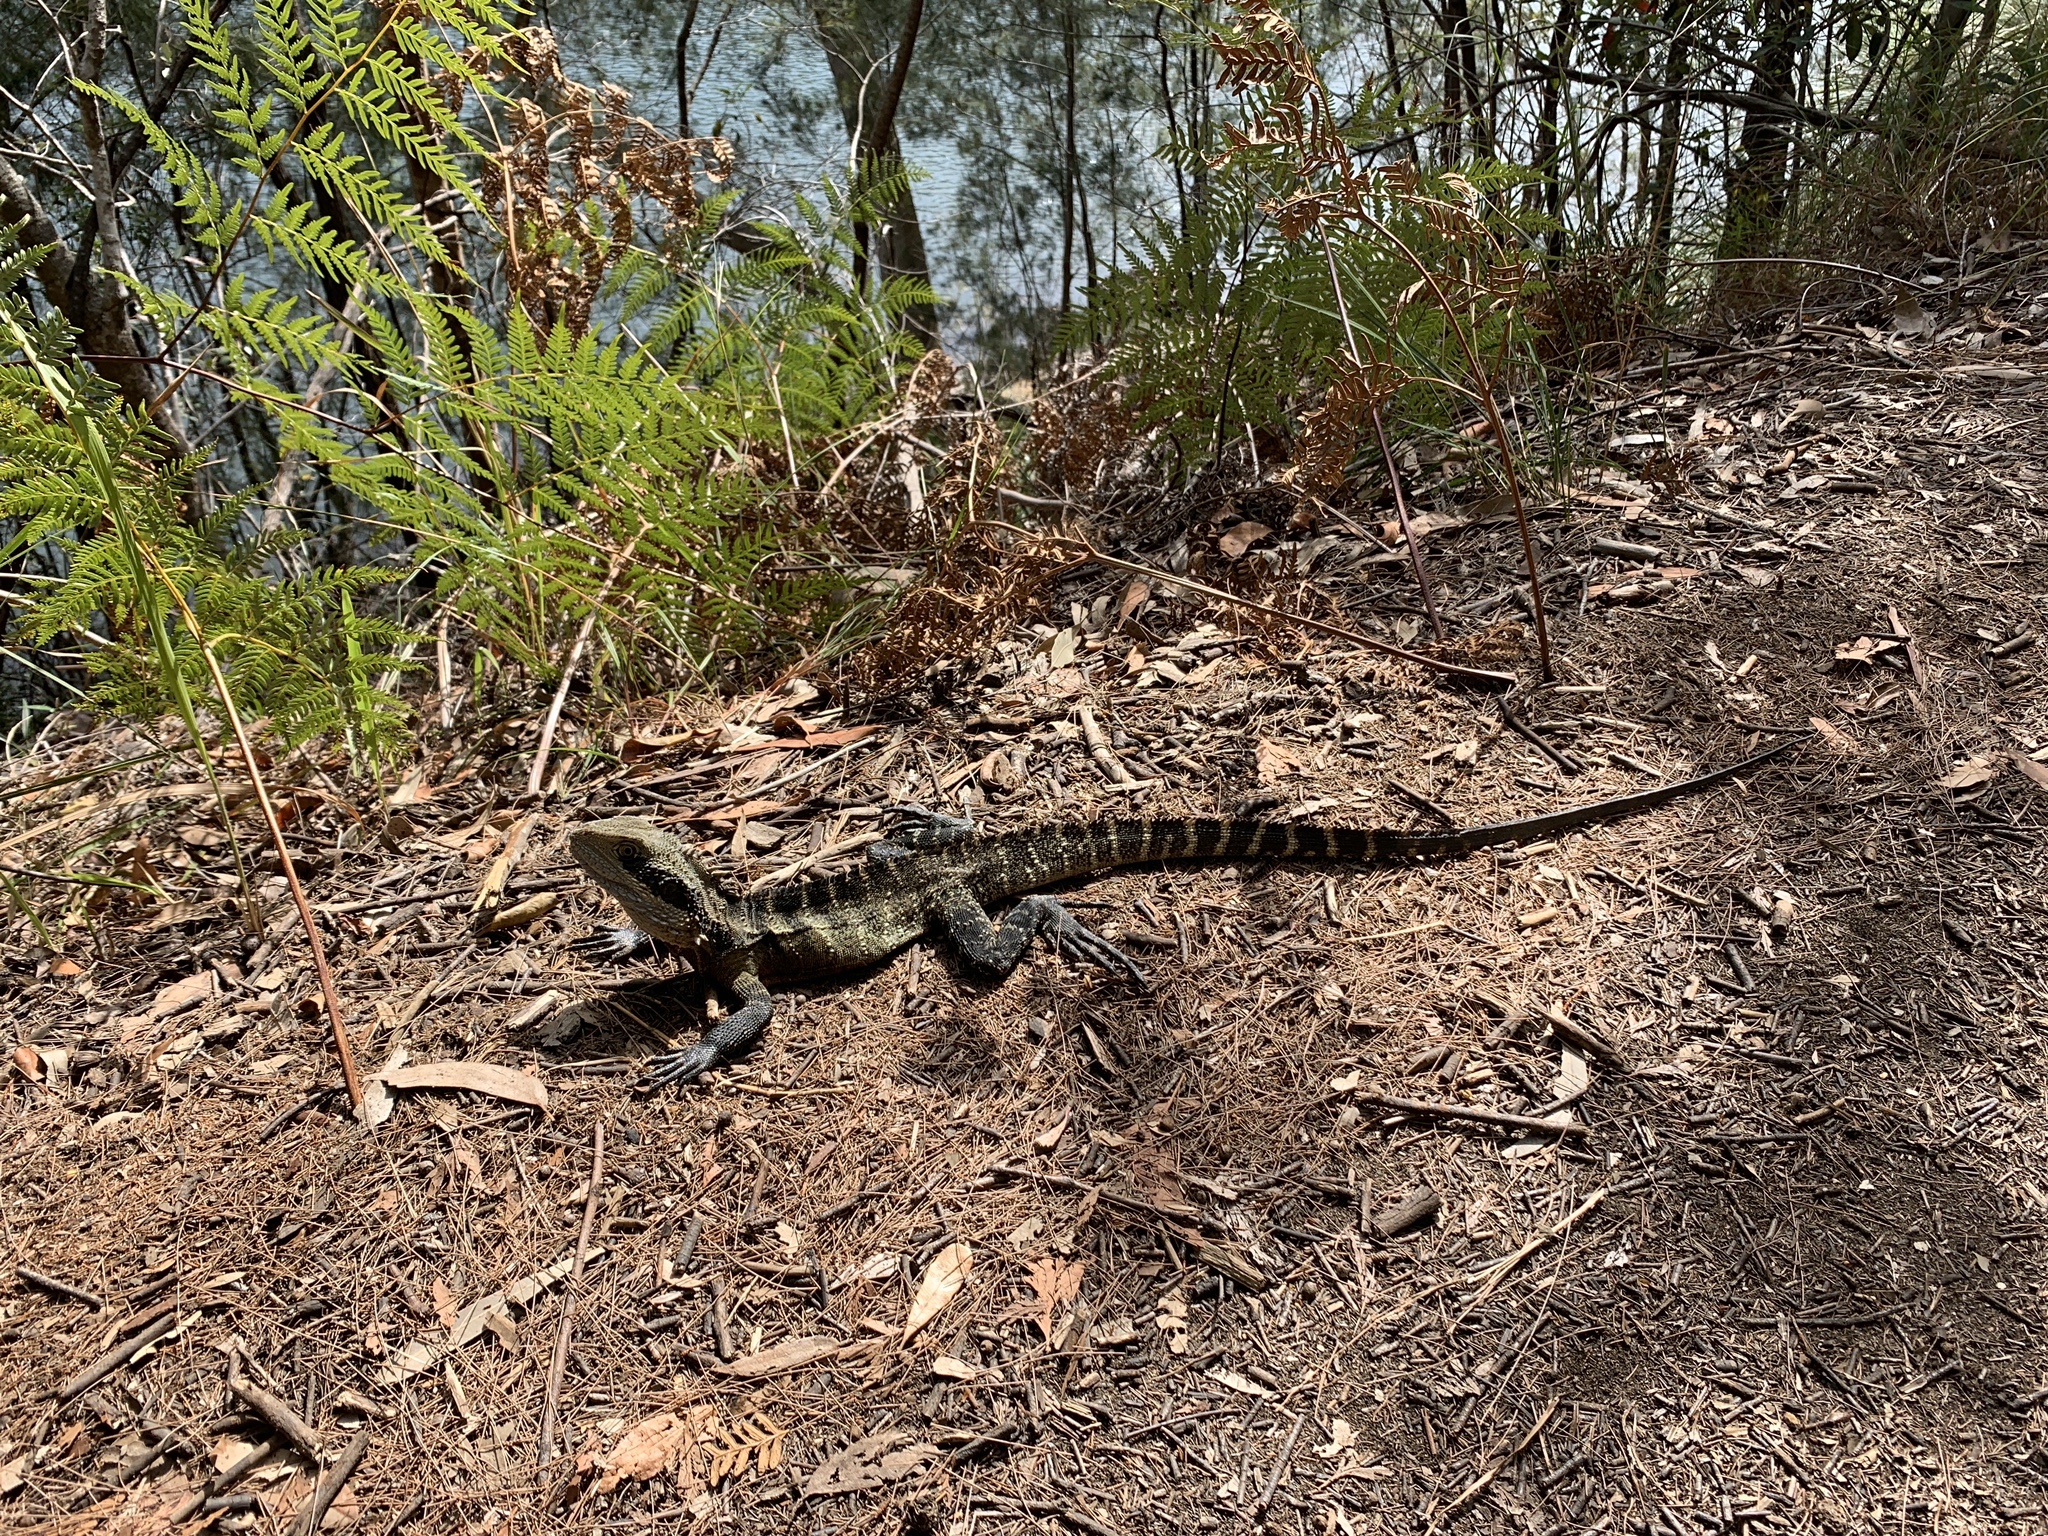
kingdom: Animalia
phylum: Chordata
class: Squamata
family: Agamidae
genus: Intellagama
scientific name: Intellagama lesueurii
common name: Eastern water dragon
